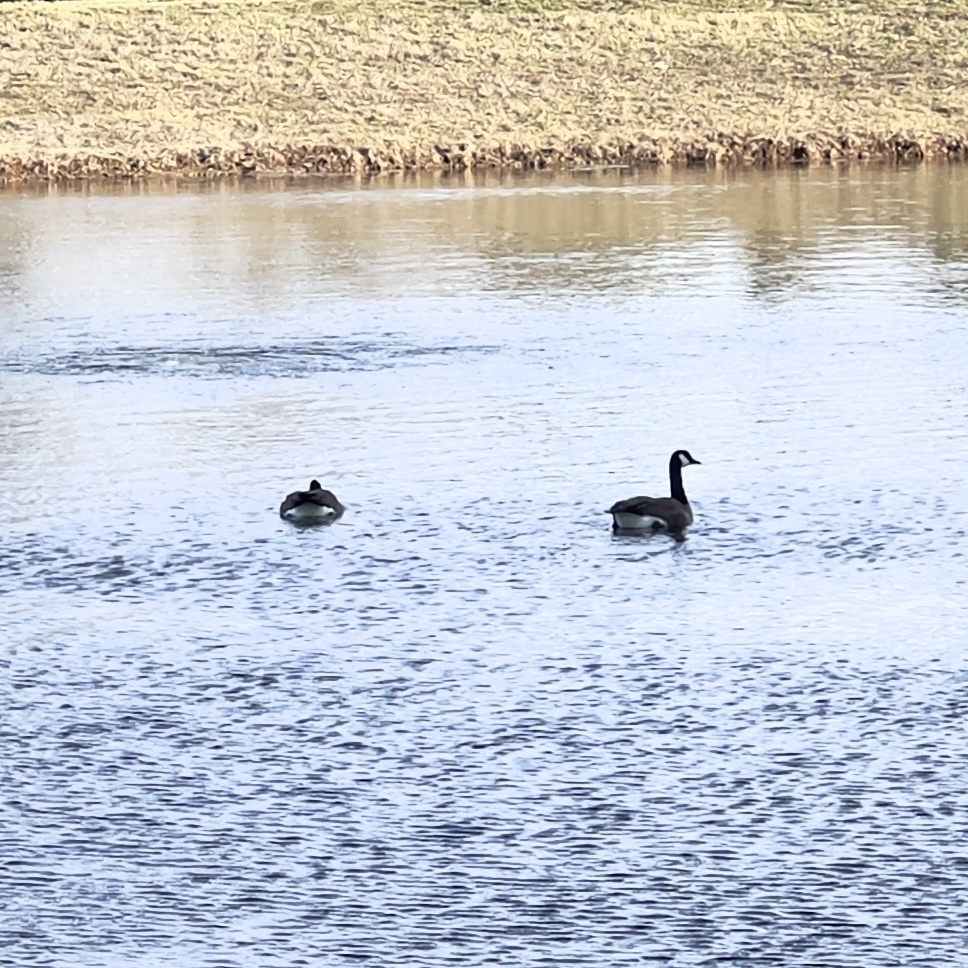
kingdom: Animalia
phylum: Chordata
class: Aves
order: Anseriformes
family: Anatidae
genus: Branta
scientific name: Branta canadensis
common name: Canada goose
